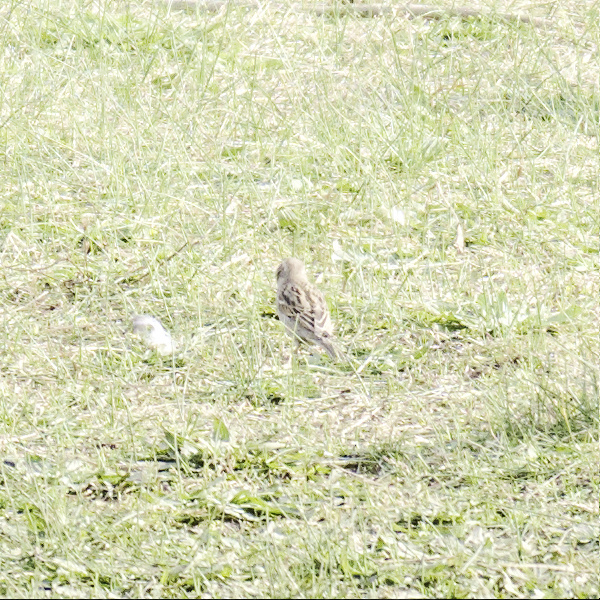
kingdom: Animalia
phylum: Chordata
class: Aves
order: Passeriformes
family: Passeridae
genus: Passer
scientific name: Passer domesticus
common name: House sparrow
